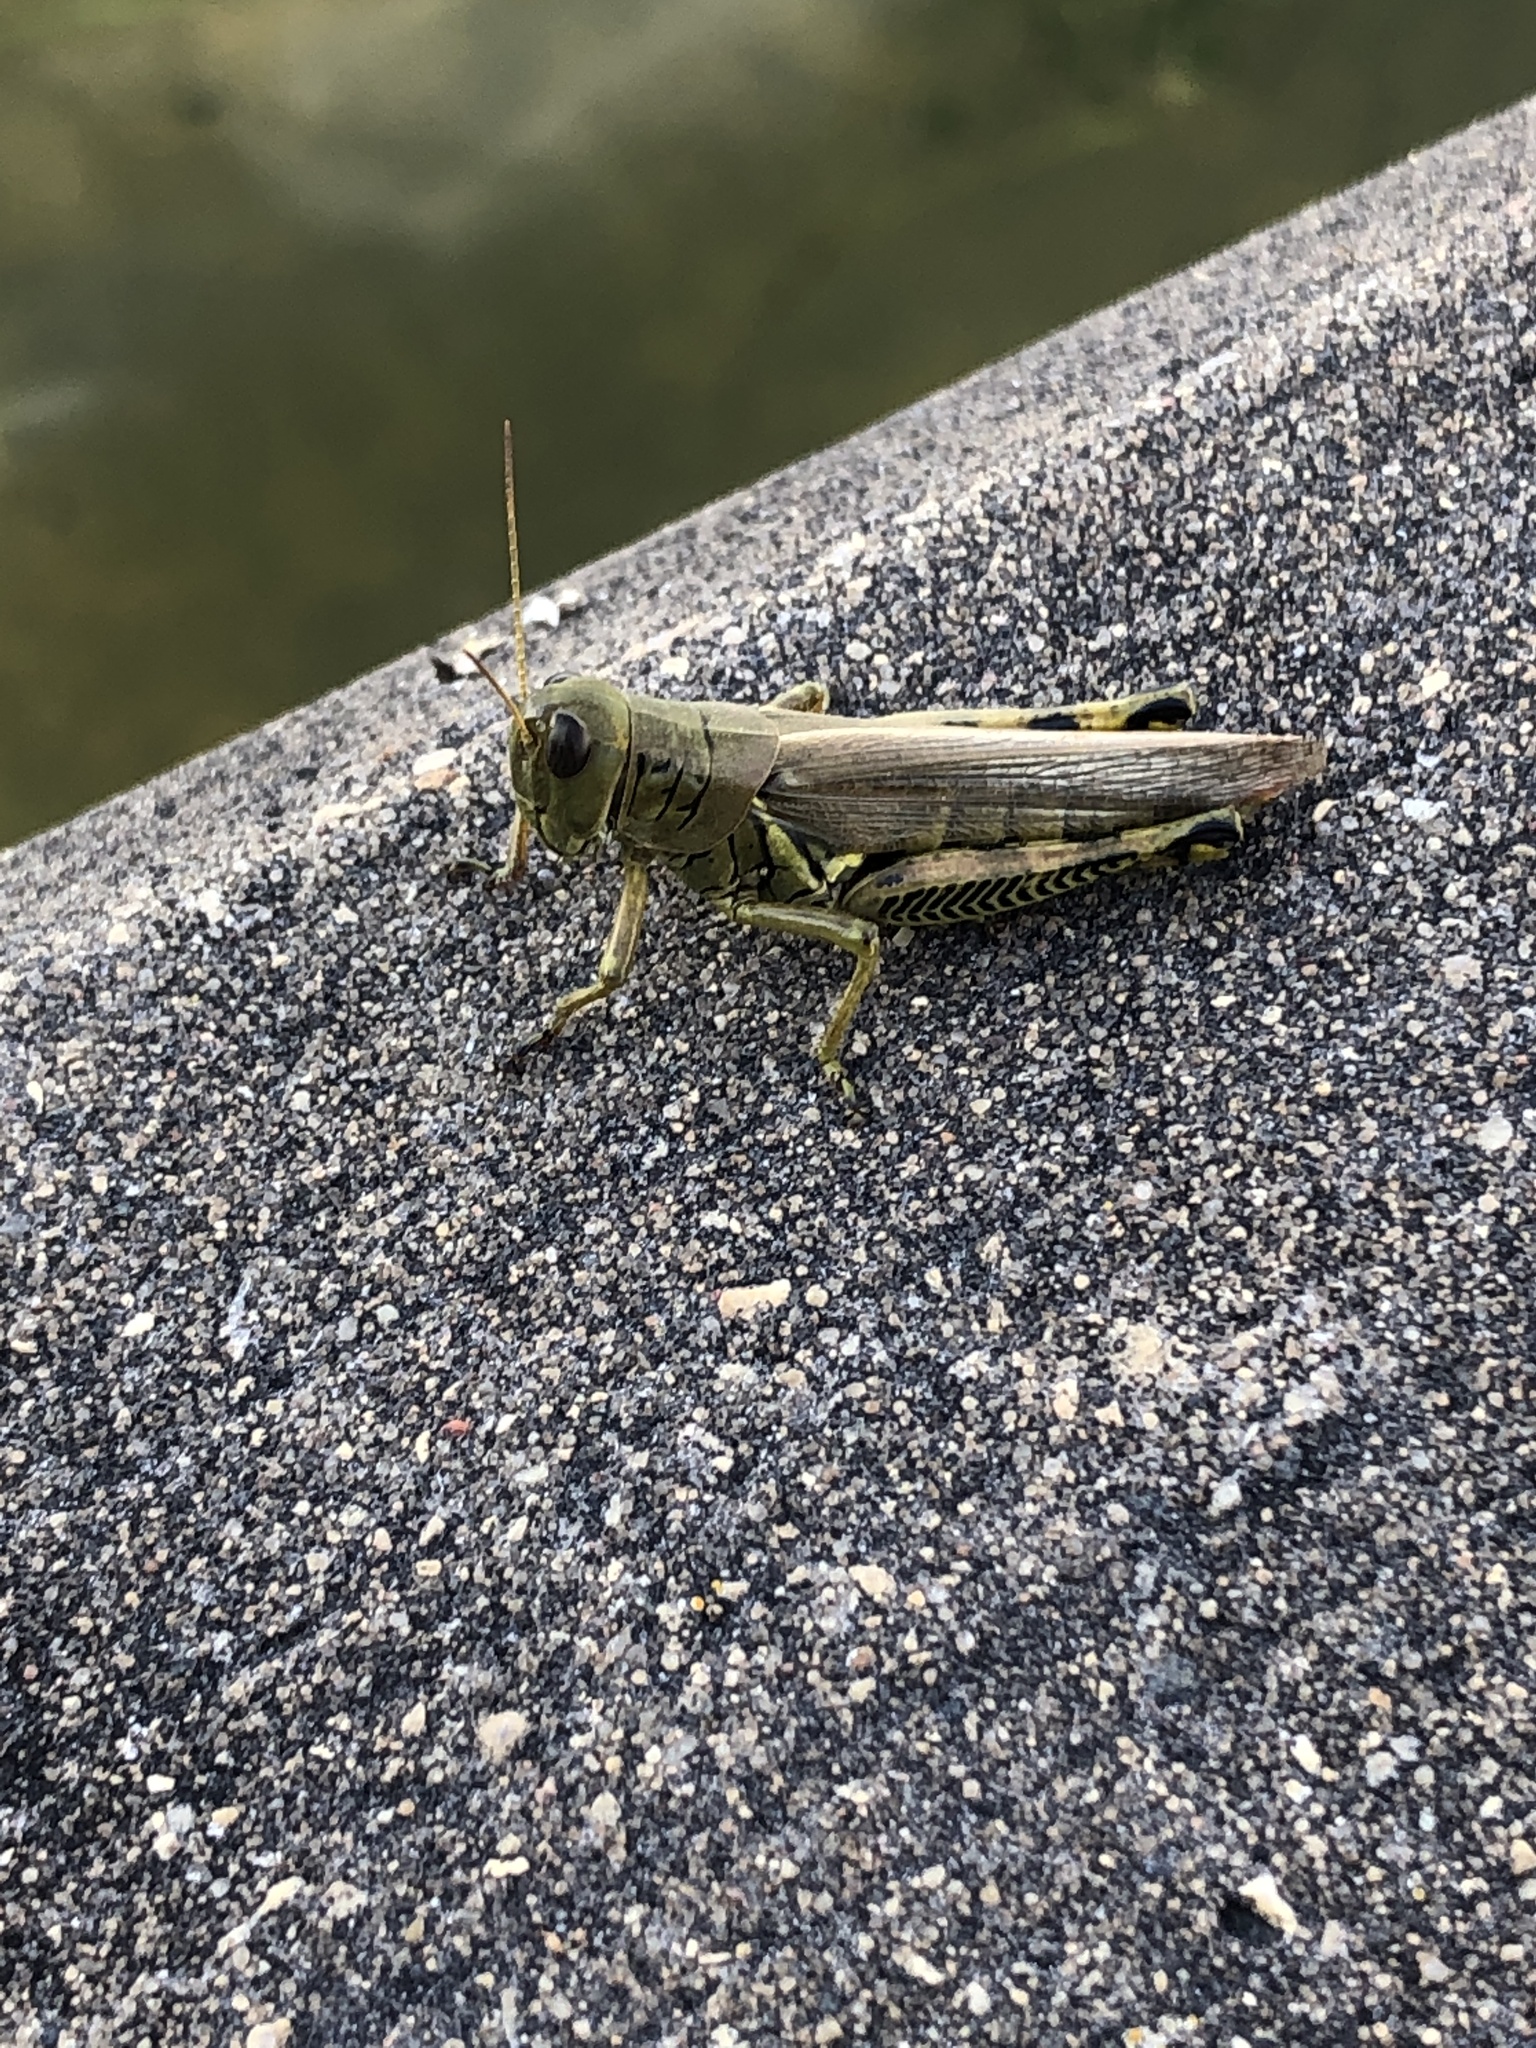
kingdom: Animalia
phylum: Arthropoda
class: Insecta
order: Orthoptera
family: Acrididae
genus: Melanoplus
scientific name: Melanoplus differentialis
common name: Differential grasshopper
